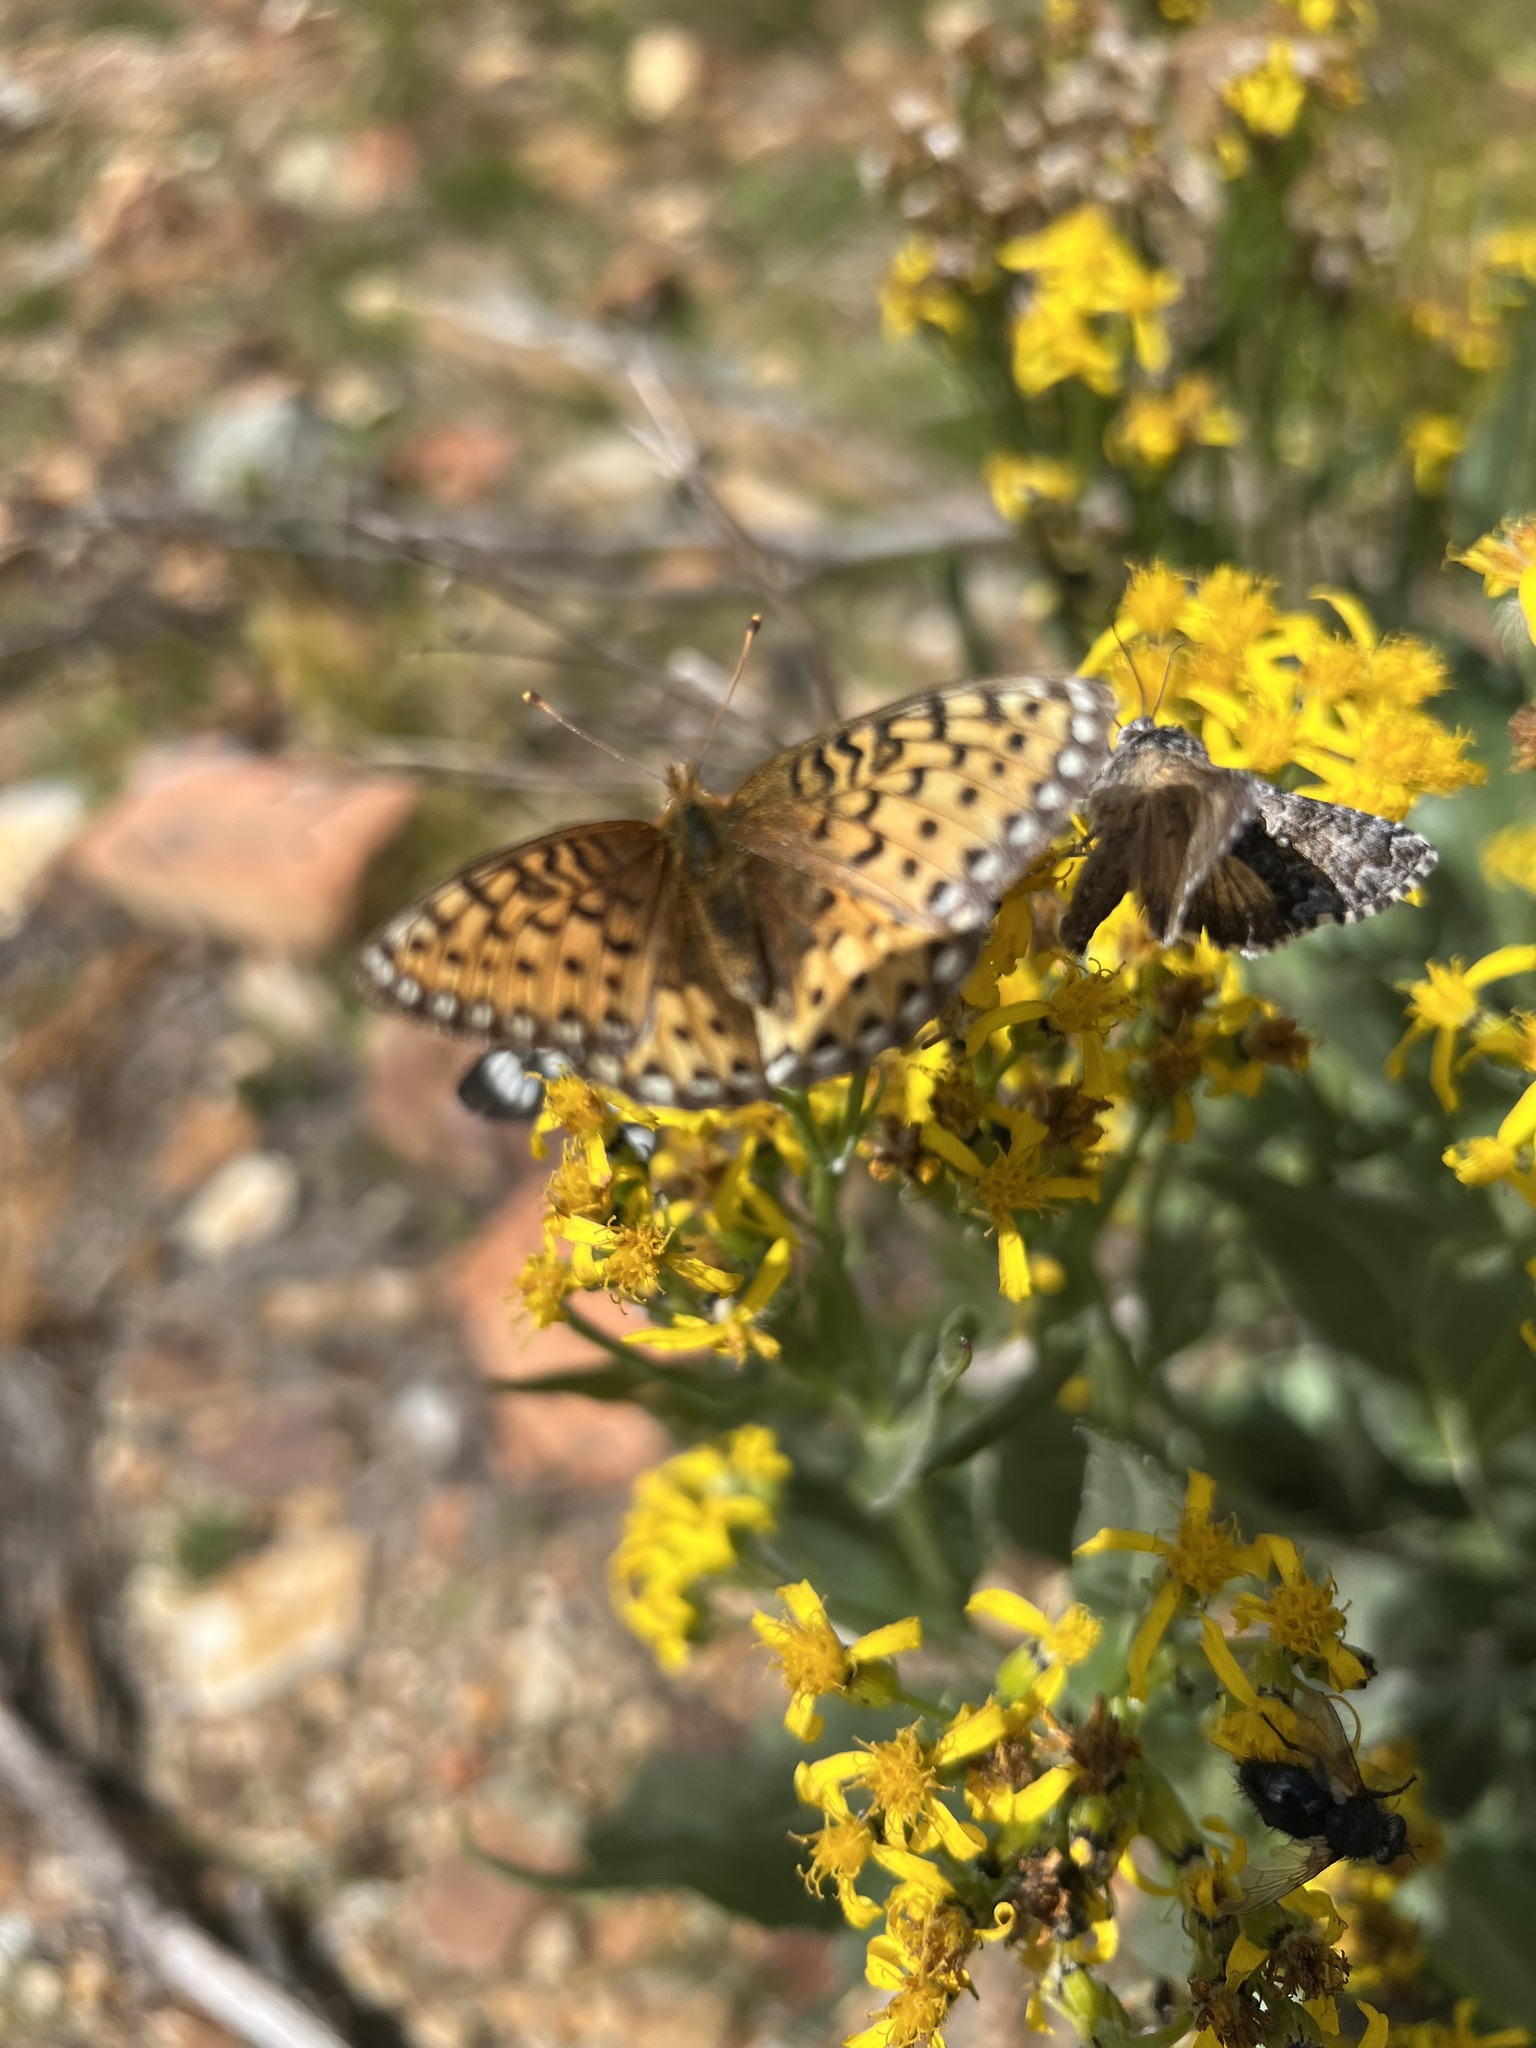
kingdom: Animalia
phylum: Arthropoda
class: Insecta
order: Lepidoptera
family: Nymphalidae
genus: Speyeria
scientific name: Speyeria mormonia
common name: Mormon fritillary
